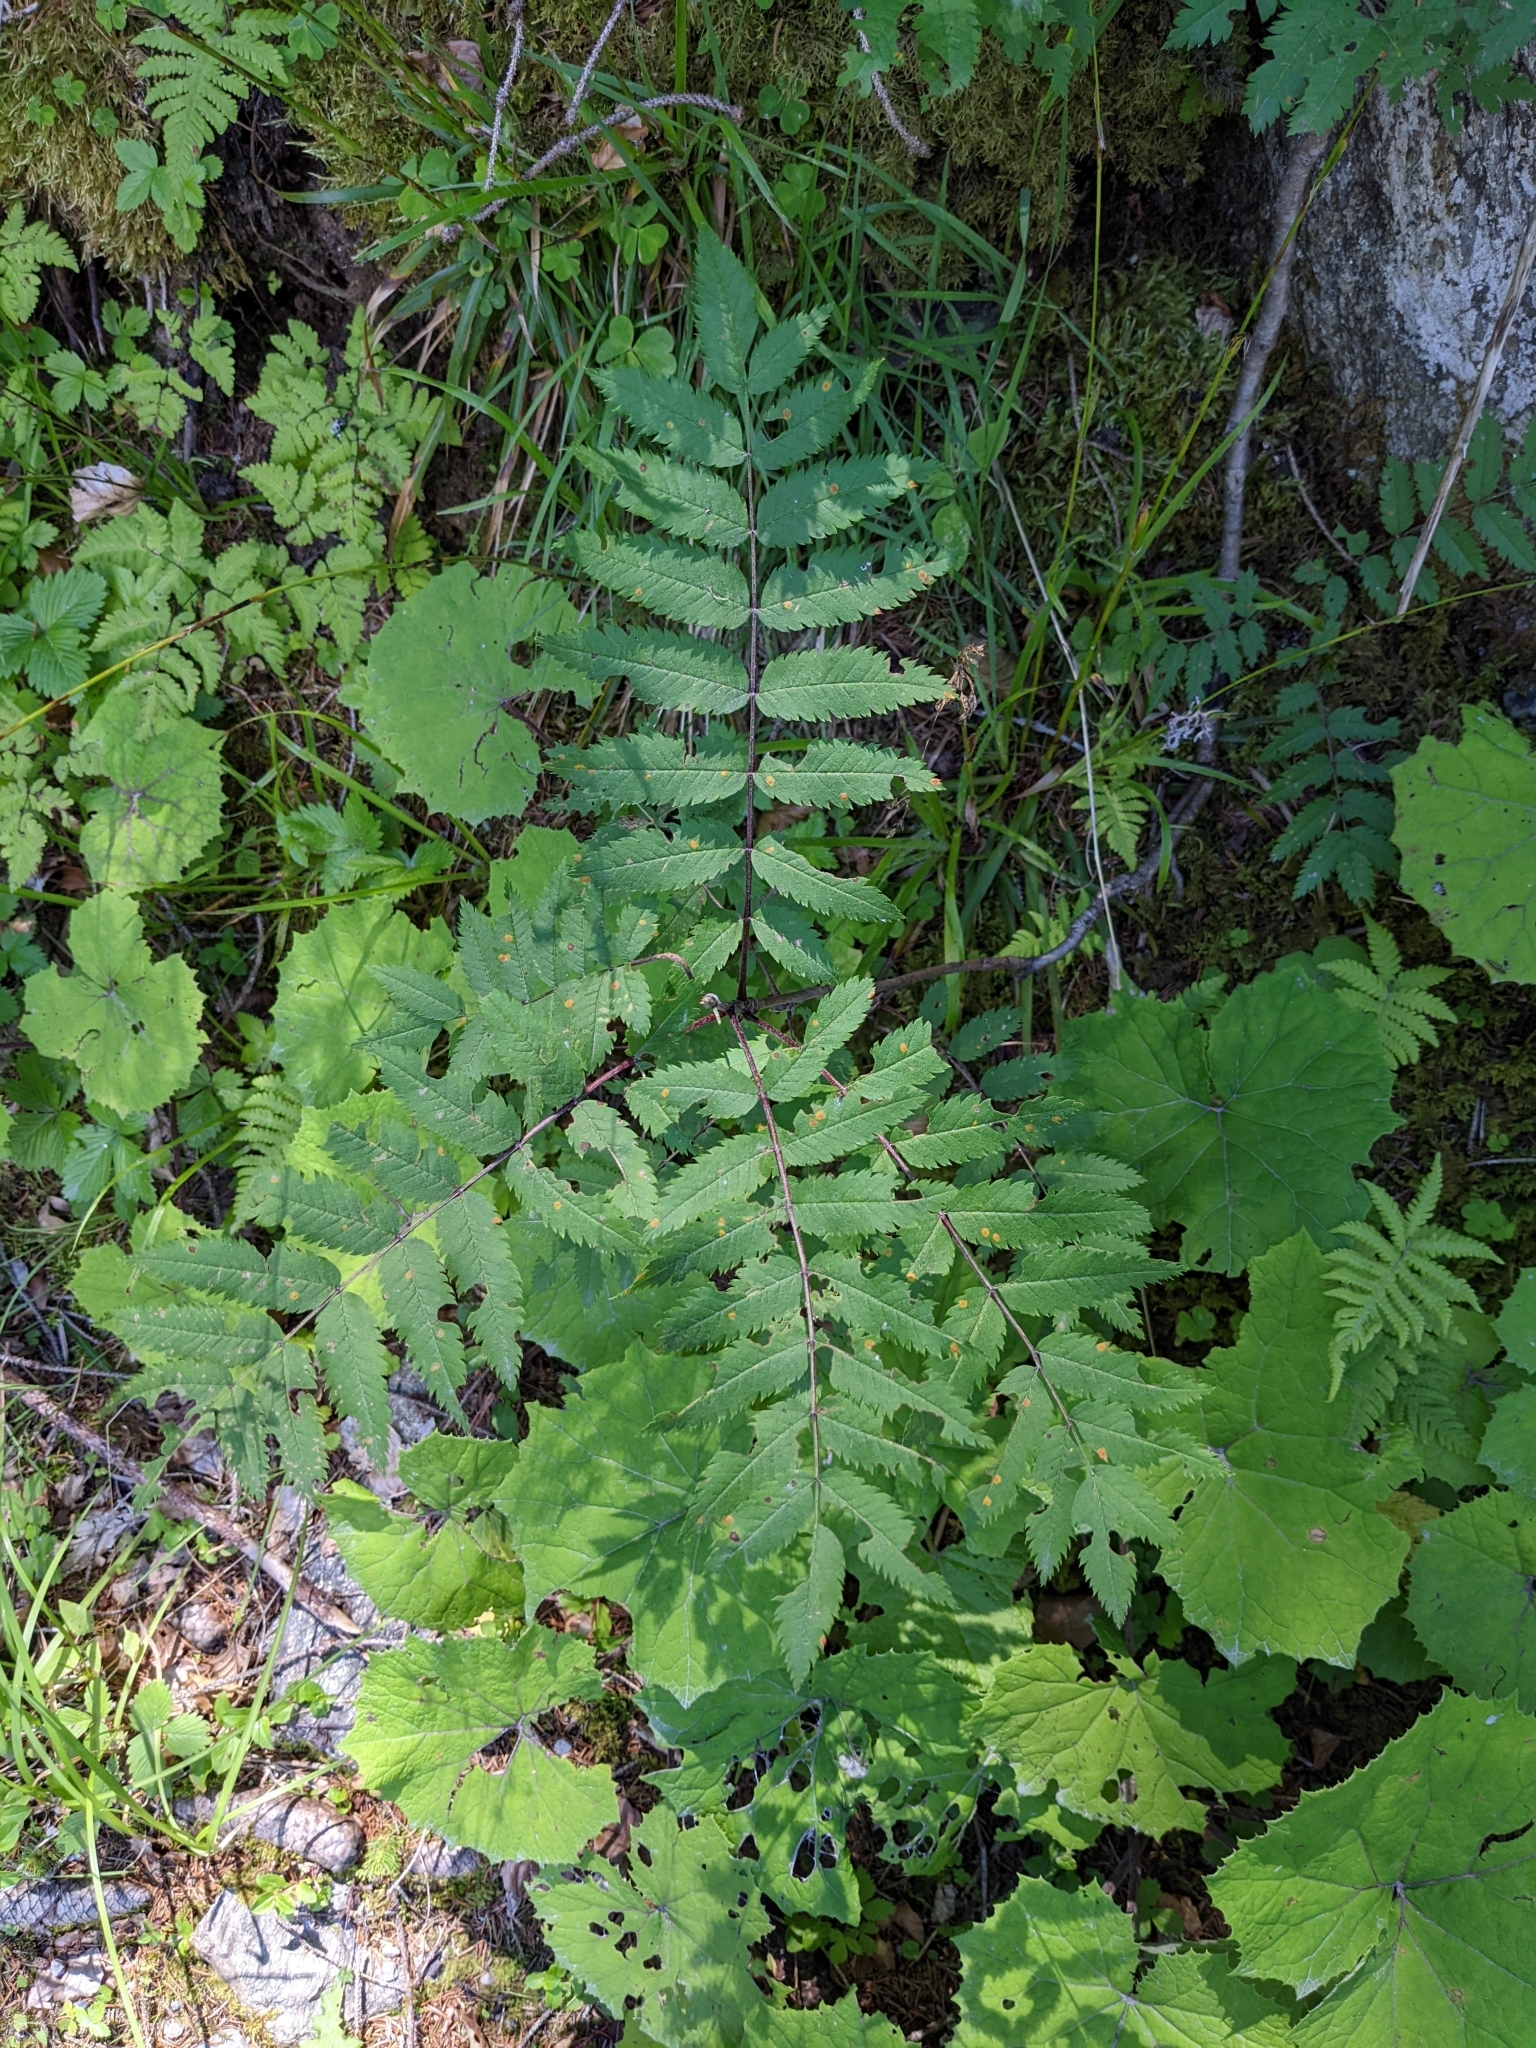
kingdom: Plantae
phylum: Tracheophyta
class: Magnoliopsida
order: Rosales
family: Rosaceae
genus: Sorbus
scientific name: Sorbus aucuparia
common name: Rowan
